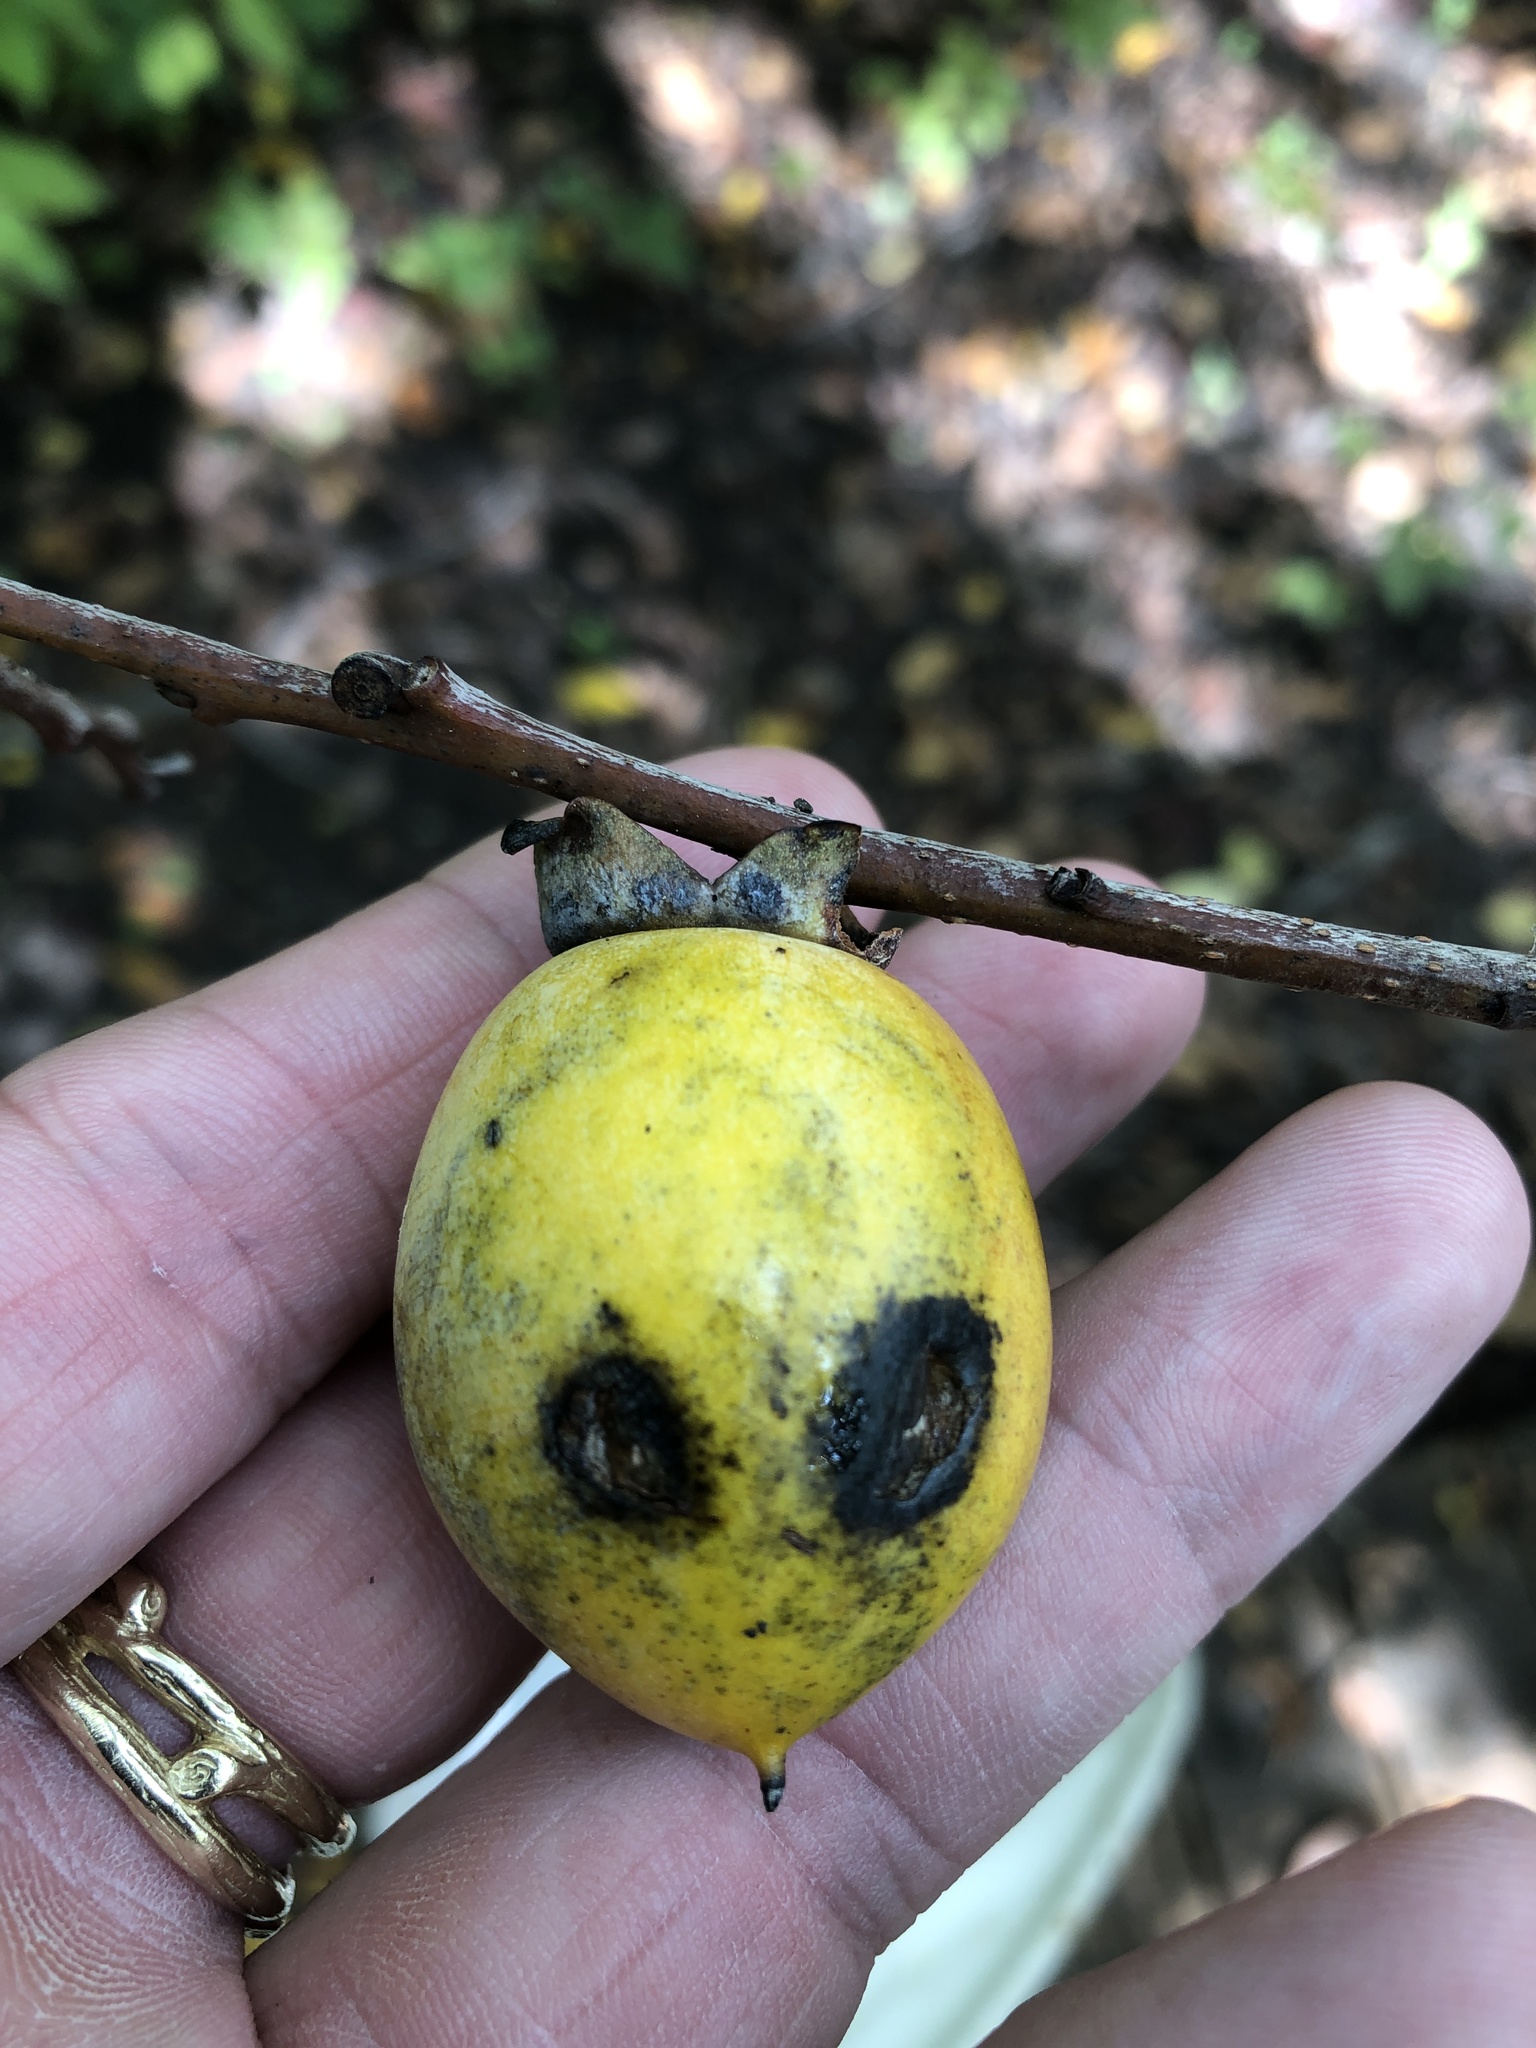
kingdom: Plantae
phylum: Tracheophyta
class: Magnoliopsida
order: Ericales
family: Ebenaceae
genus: Diospyros
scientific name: Diospyros virginiana
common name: Persimmon
